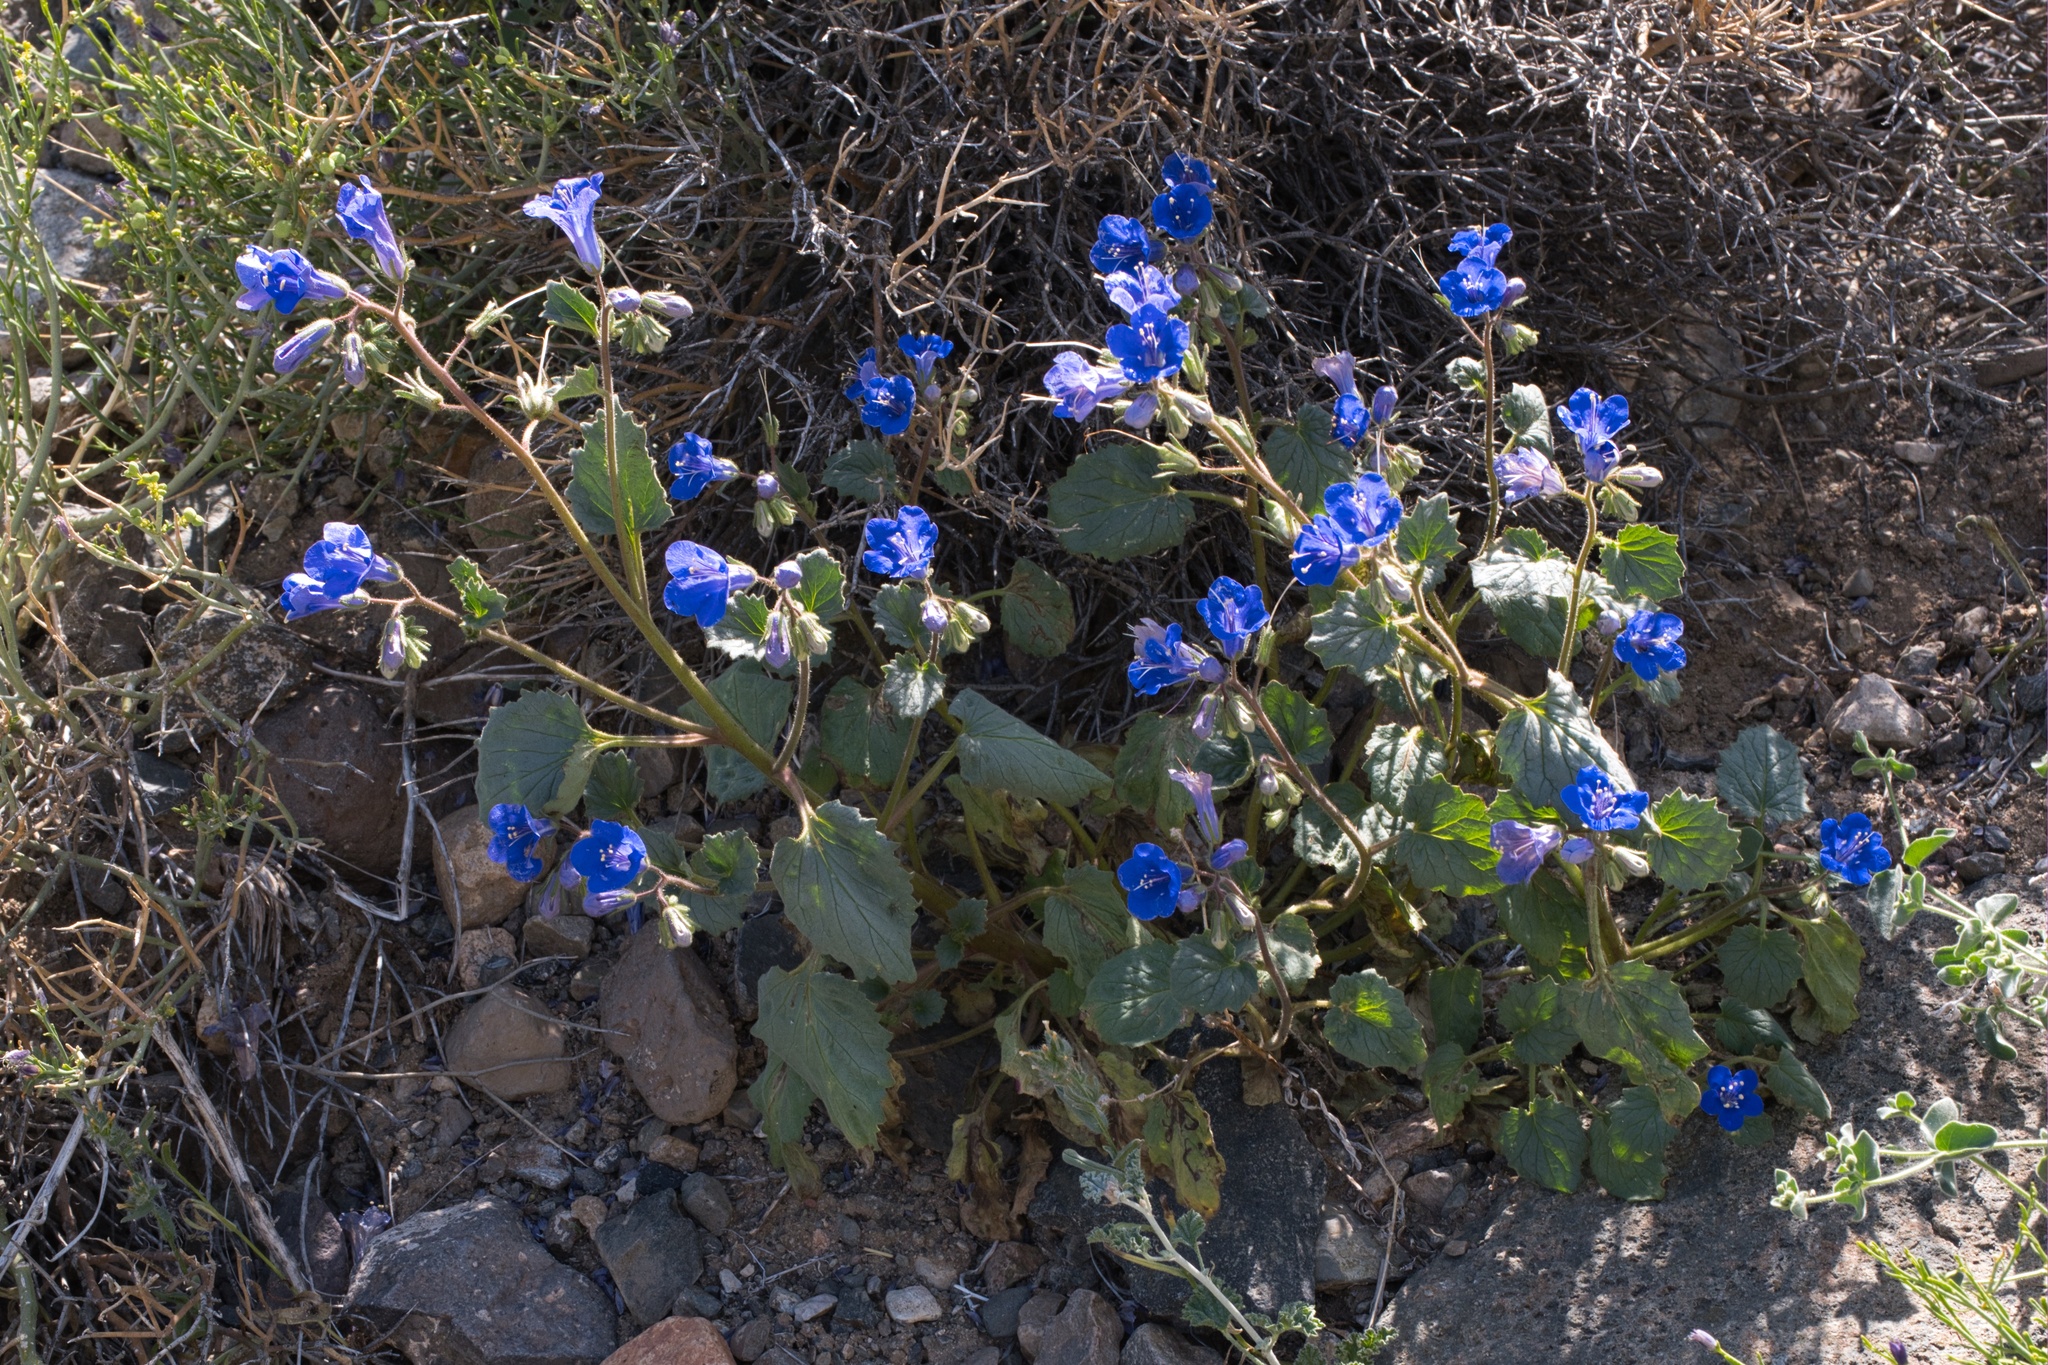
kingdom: Plantae
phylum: Tracheophyta
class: Magnoliopsida
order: Boraginales
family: Hydrophyllaceae
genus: Phacelia
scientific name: Phacelia campanularia
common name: California bluebell
